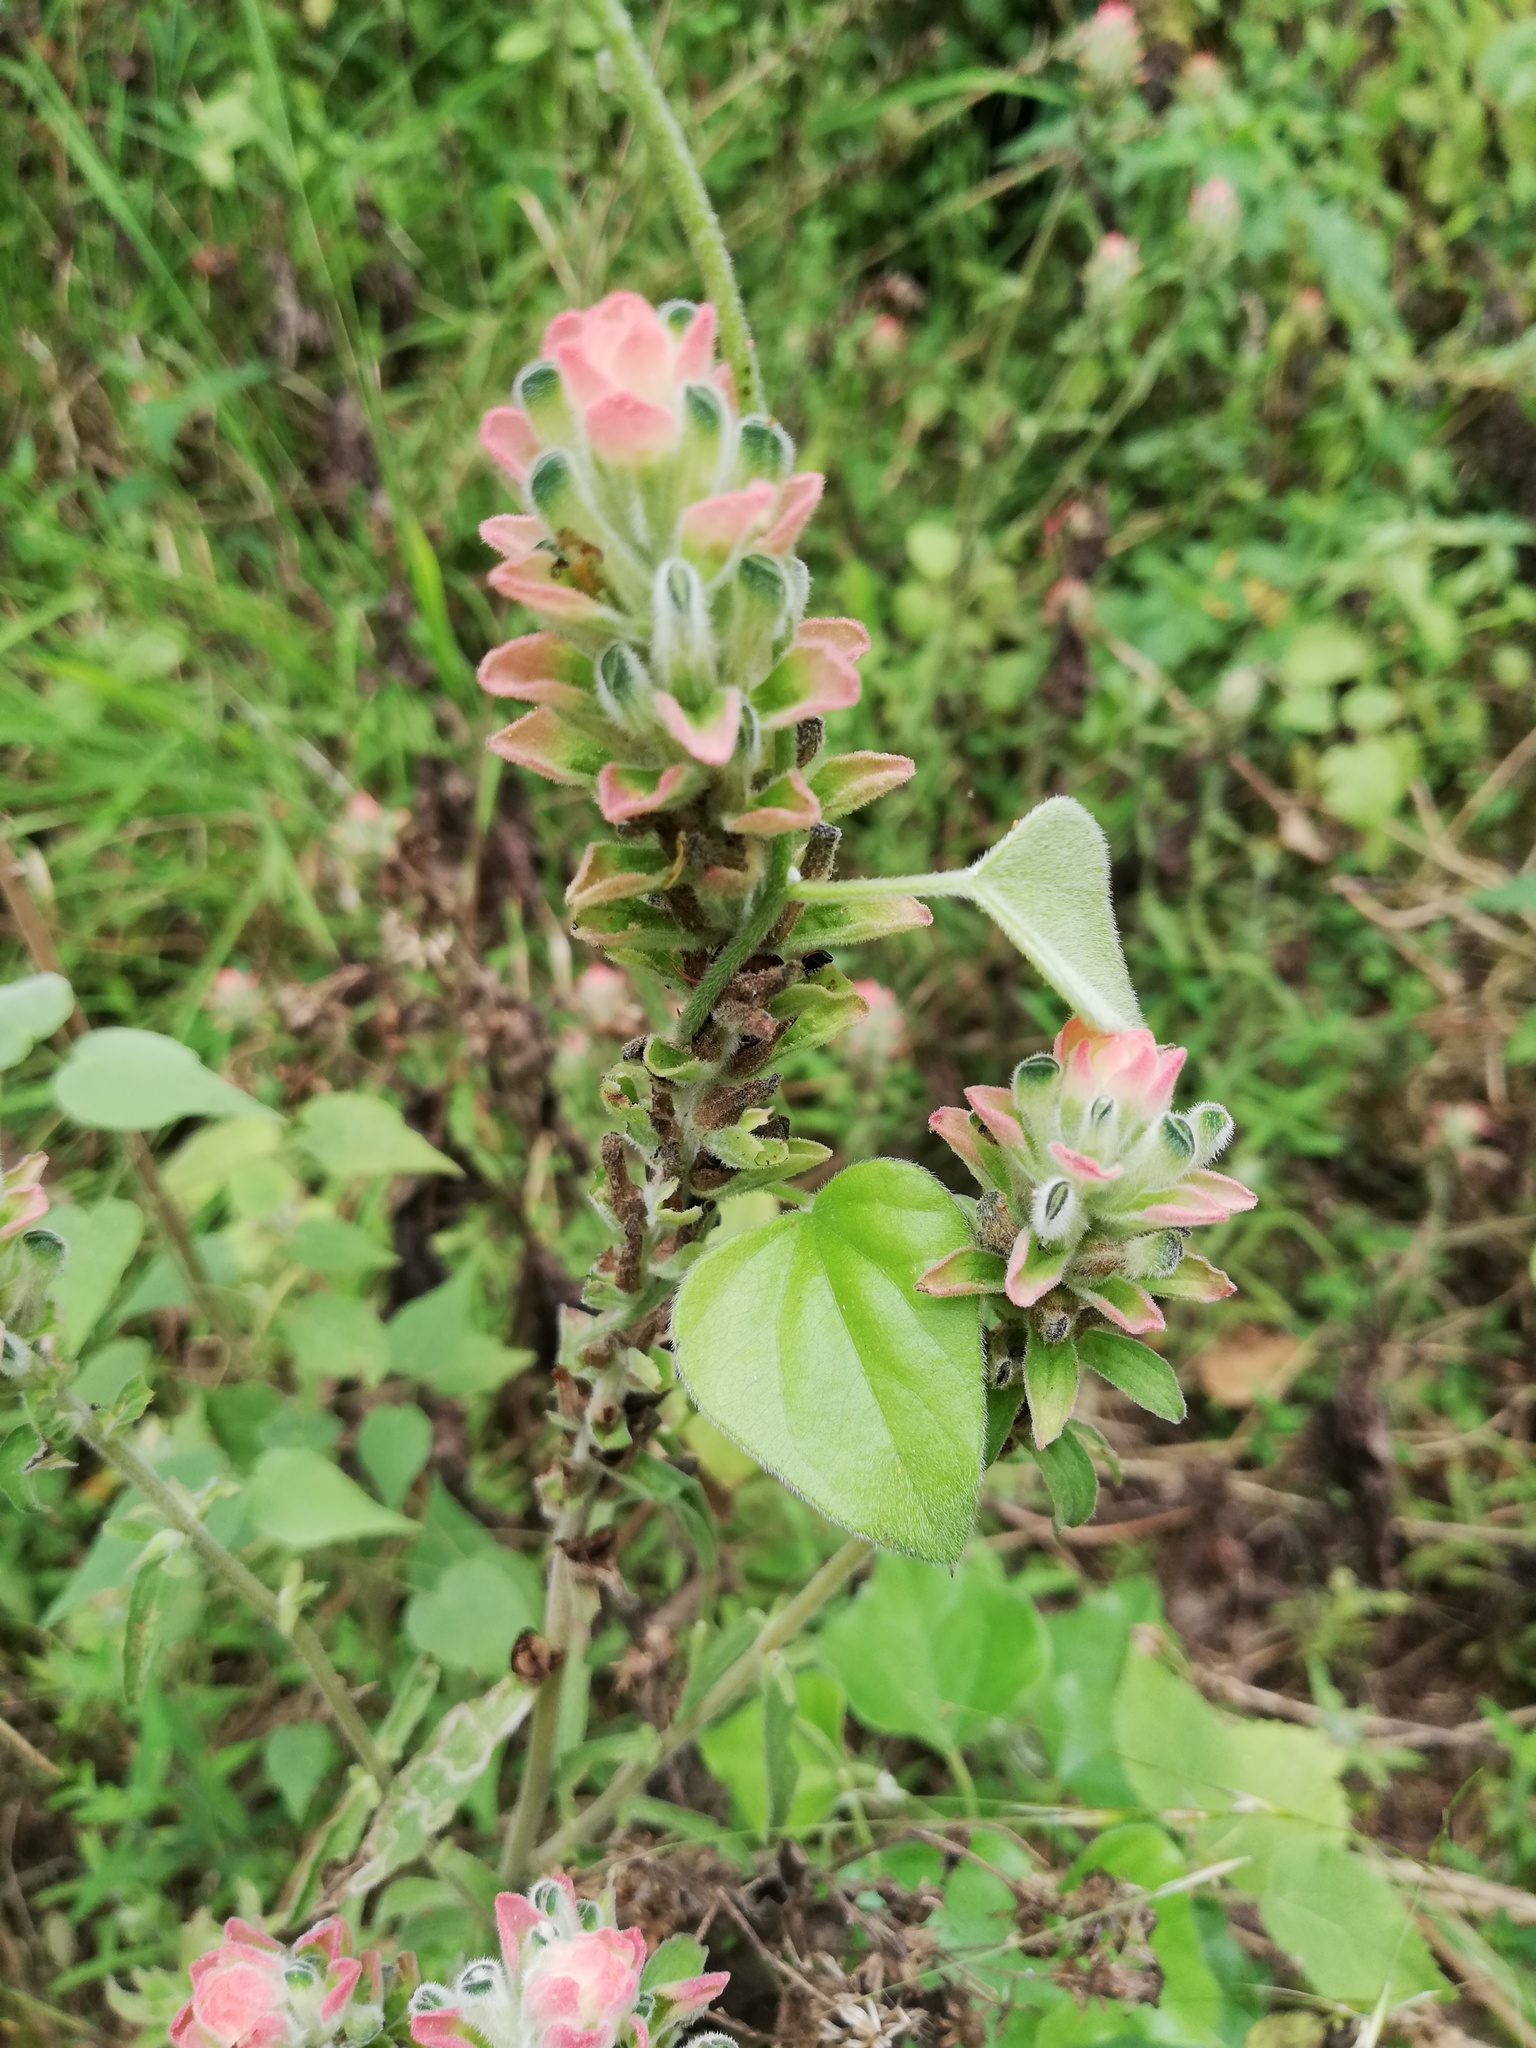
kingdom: Plantae
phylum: Tracheophyta
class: Magnoliopsida
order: Lamiales
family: Orobanchaceae
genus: Castilleja
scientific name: Castilleja arvensis
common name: Indian paintbrush
